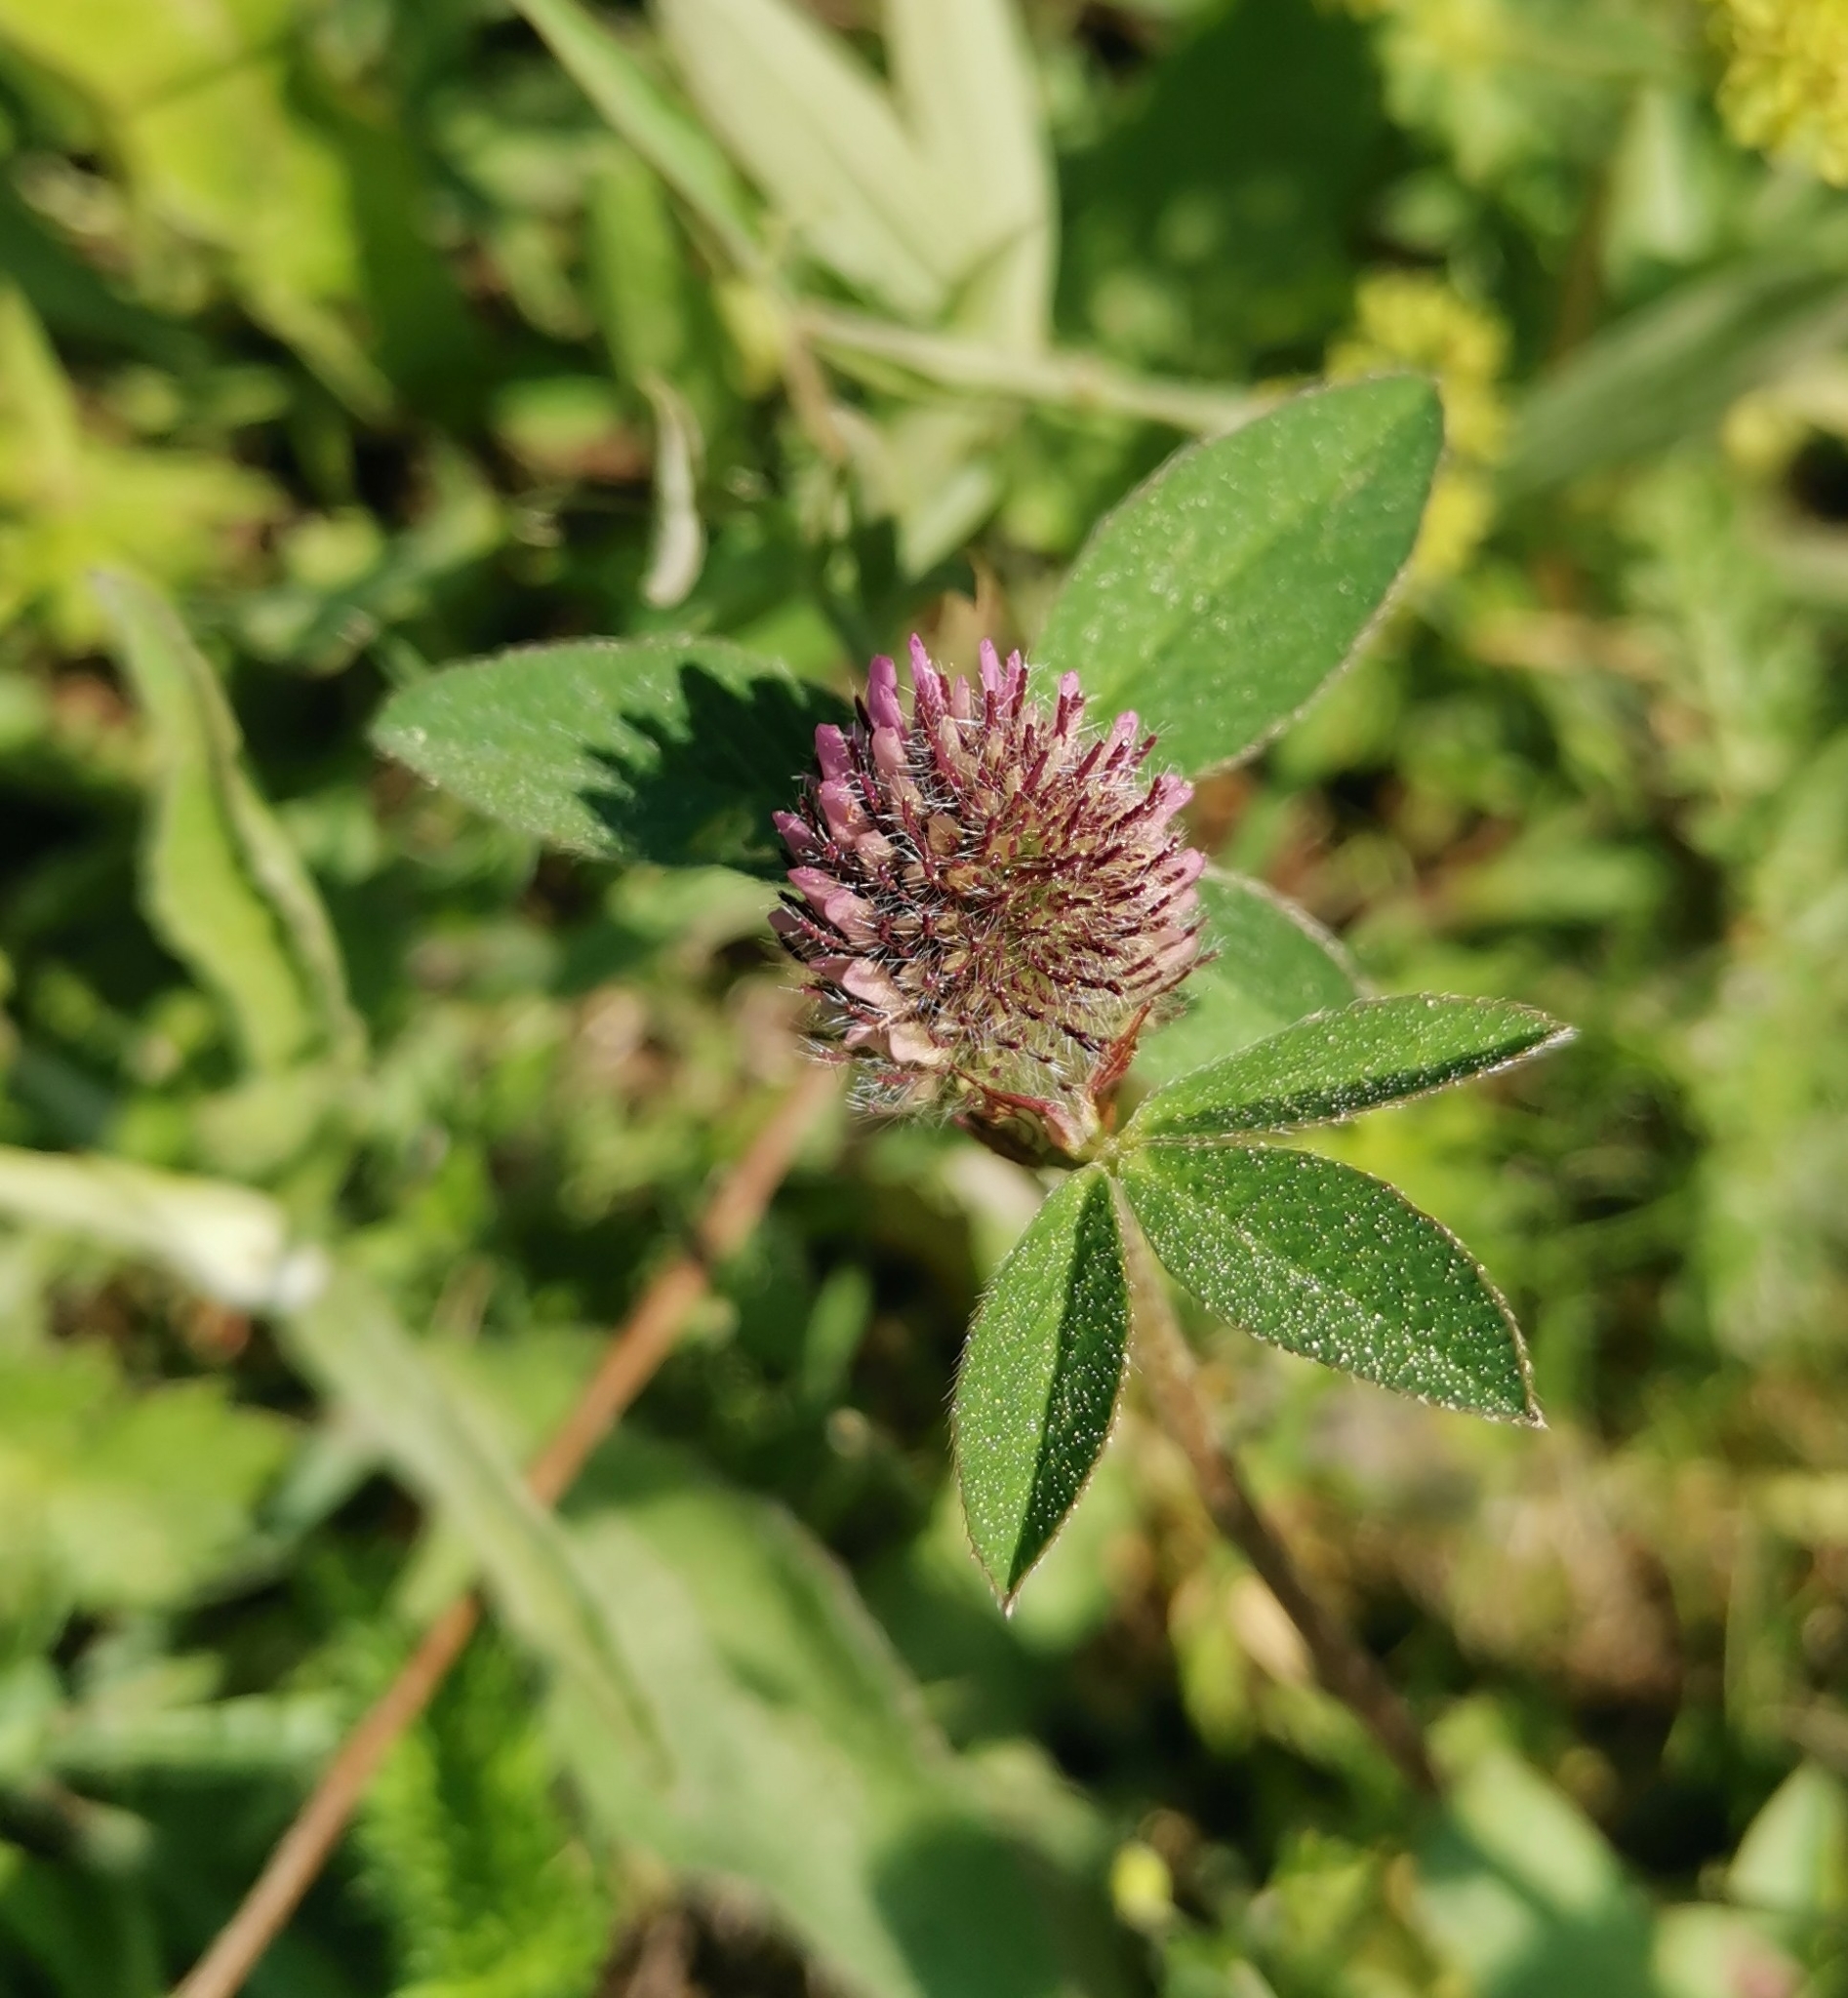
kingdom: Plantae
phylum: Tracheophyta
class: Magnoliopsida
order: Fabales
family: Fabaceae
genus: Trifolium
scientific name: Trifolium pratense
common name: Red clover
